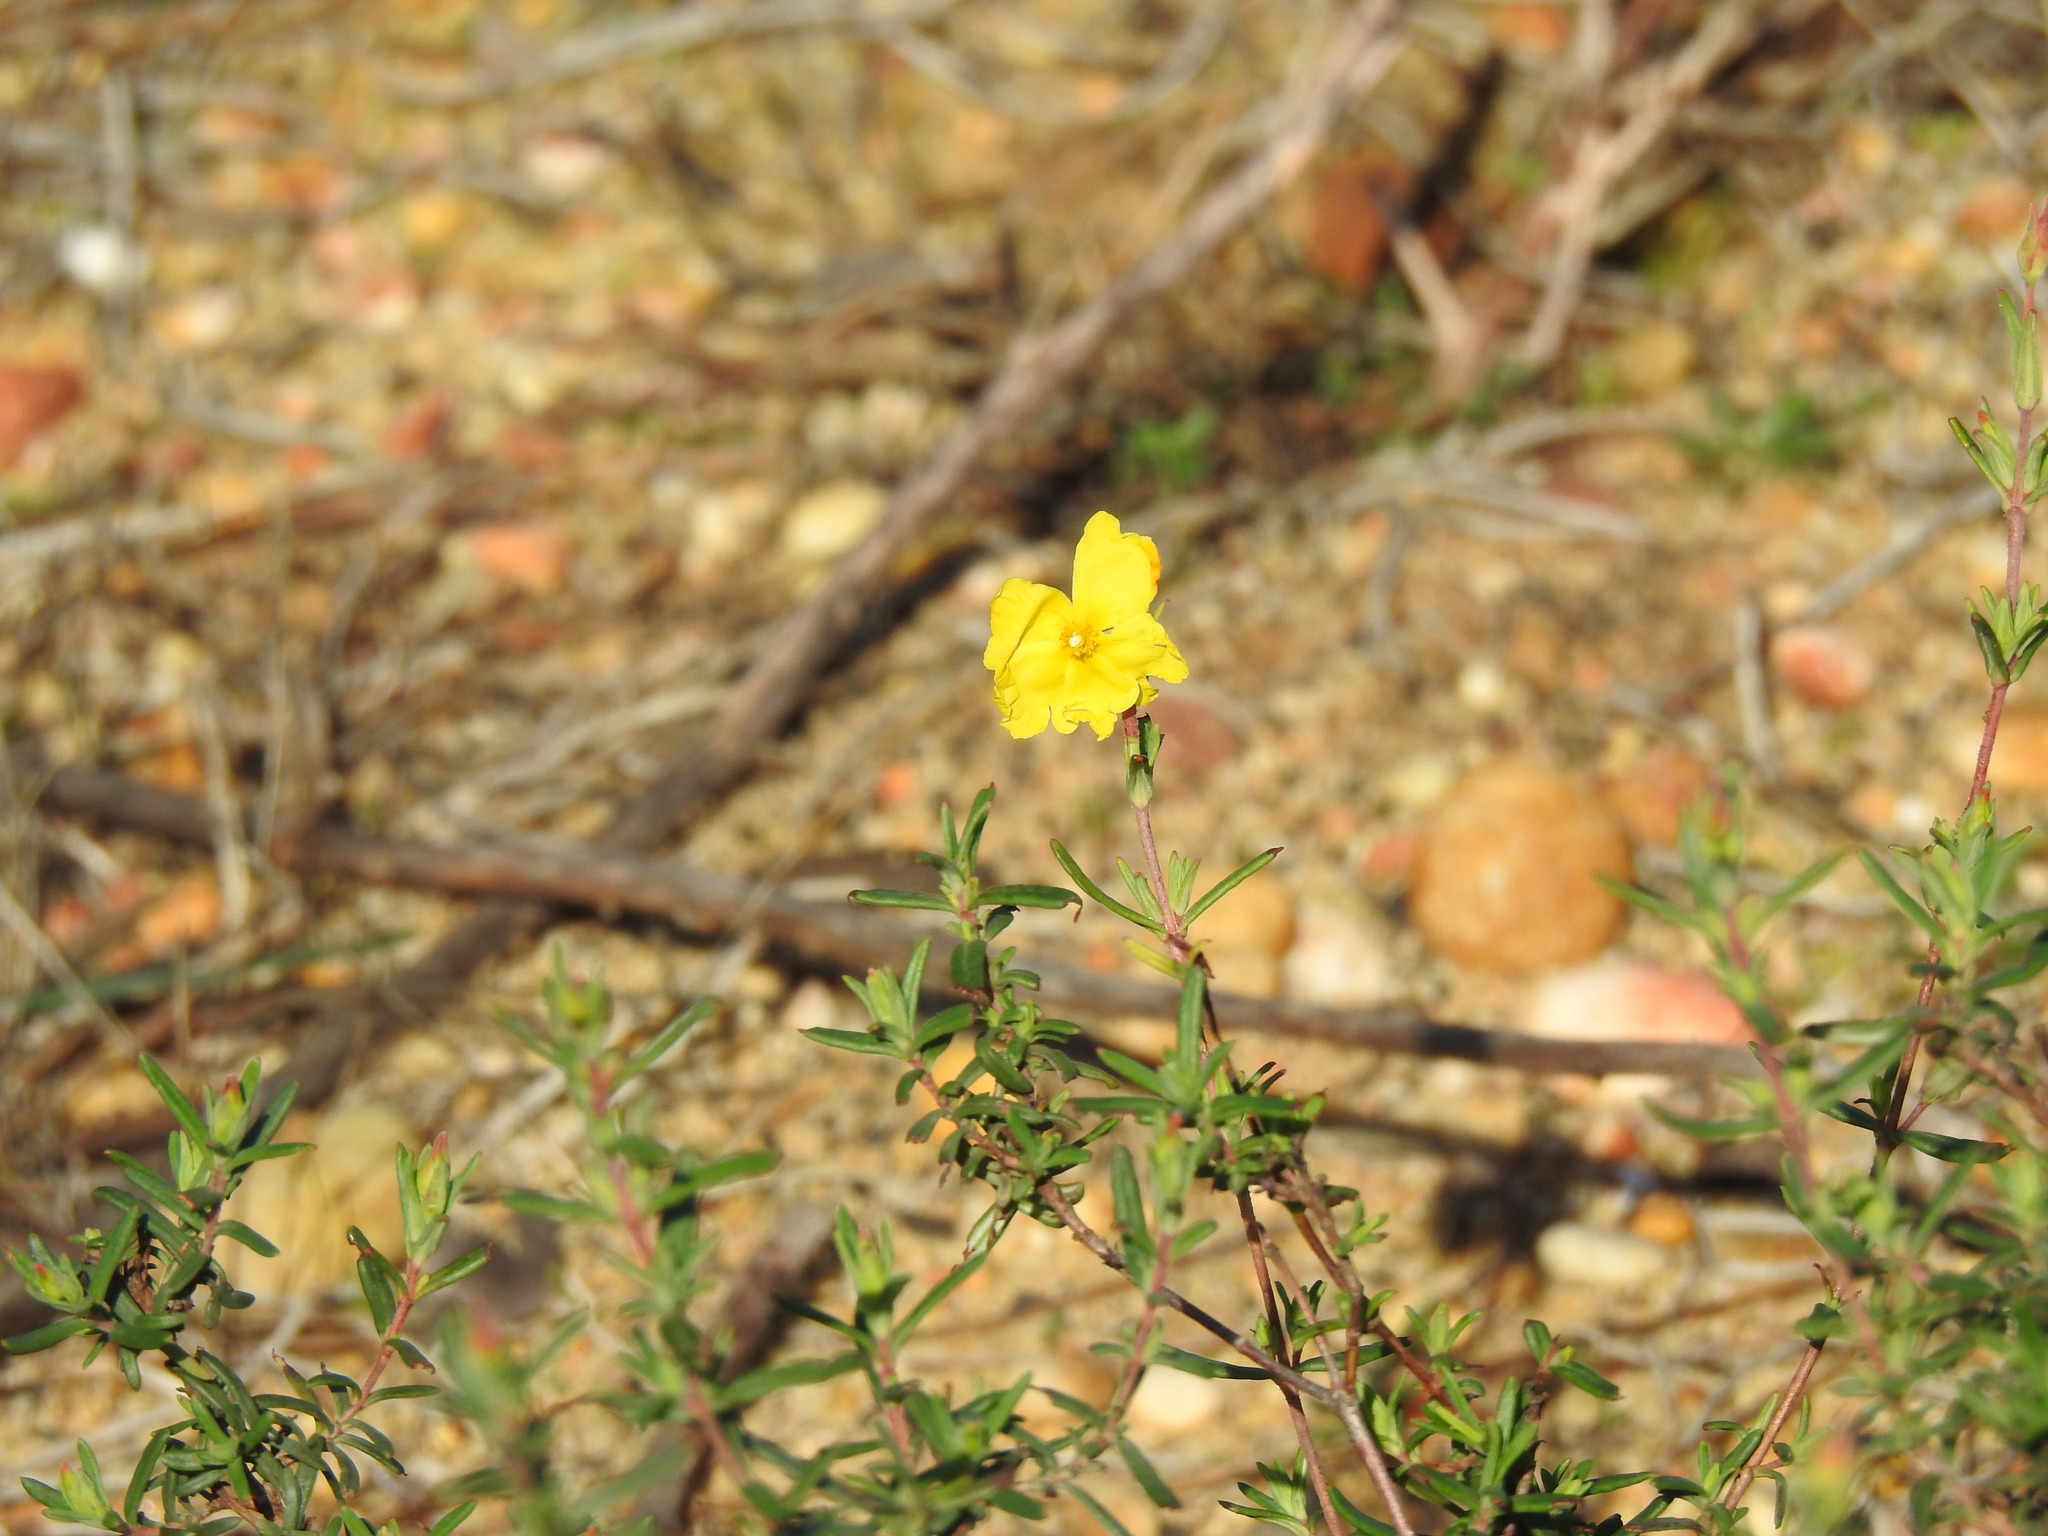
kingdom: Plantae
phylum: Tracheophyta
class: Magnoliopsida
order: Malvales
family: Cistaceae
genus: Halimium
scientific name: Halimium calycinum
